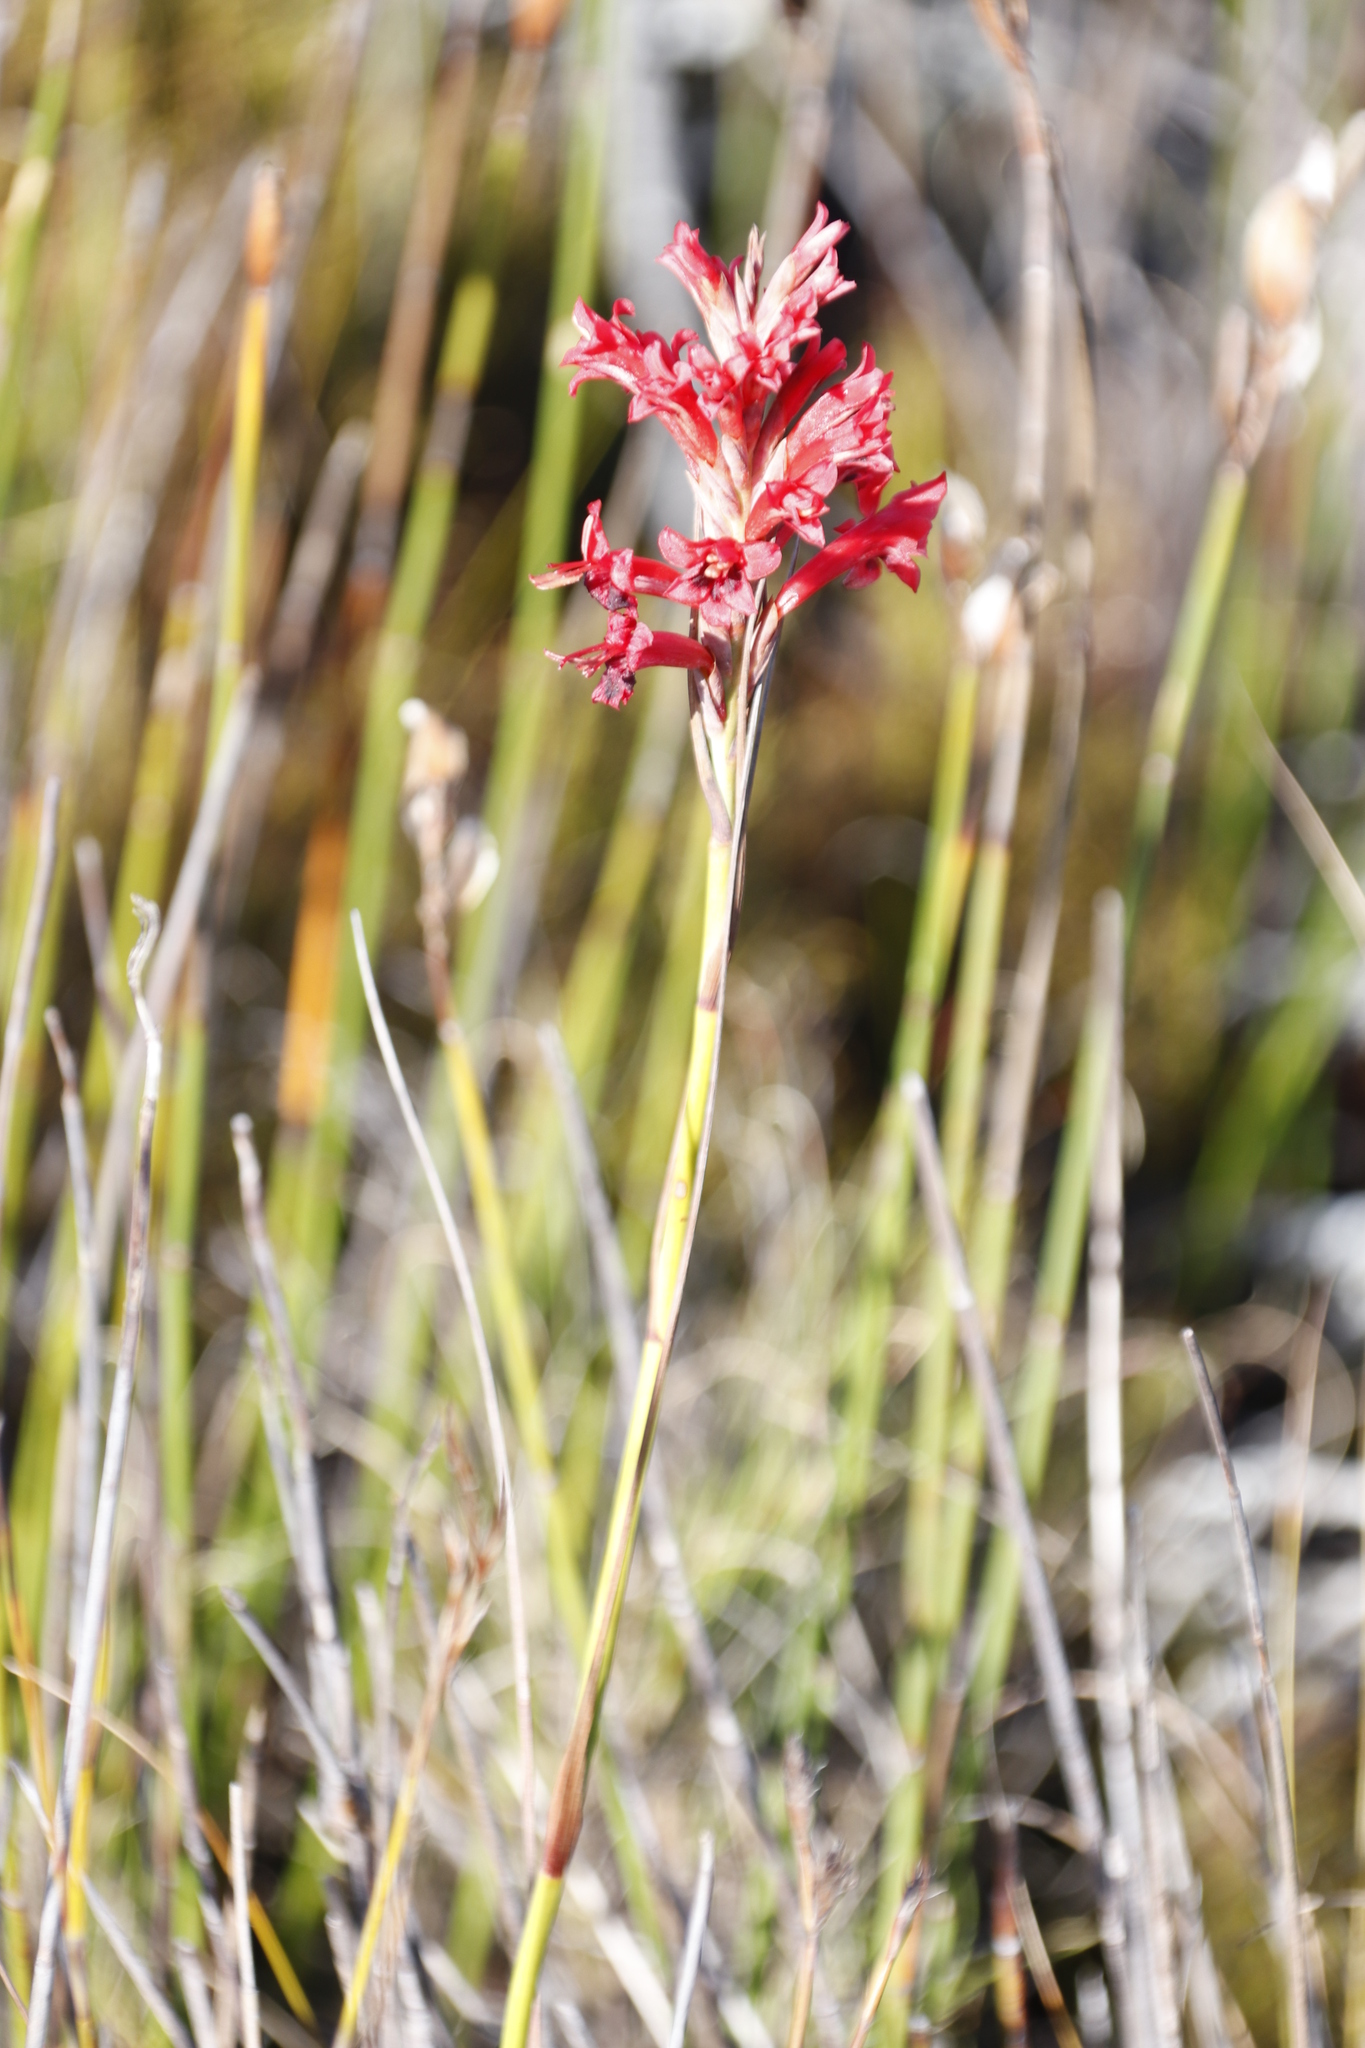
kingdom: Plantae
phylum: Tracheophyta
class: Liliopsida
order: Asparagales
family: Iridaceae
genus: Tritoniopsis
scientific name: Tritoniopsis triticea
